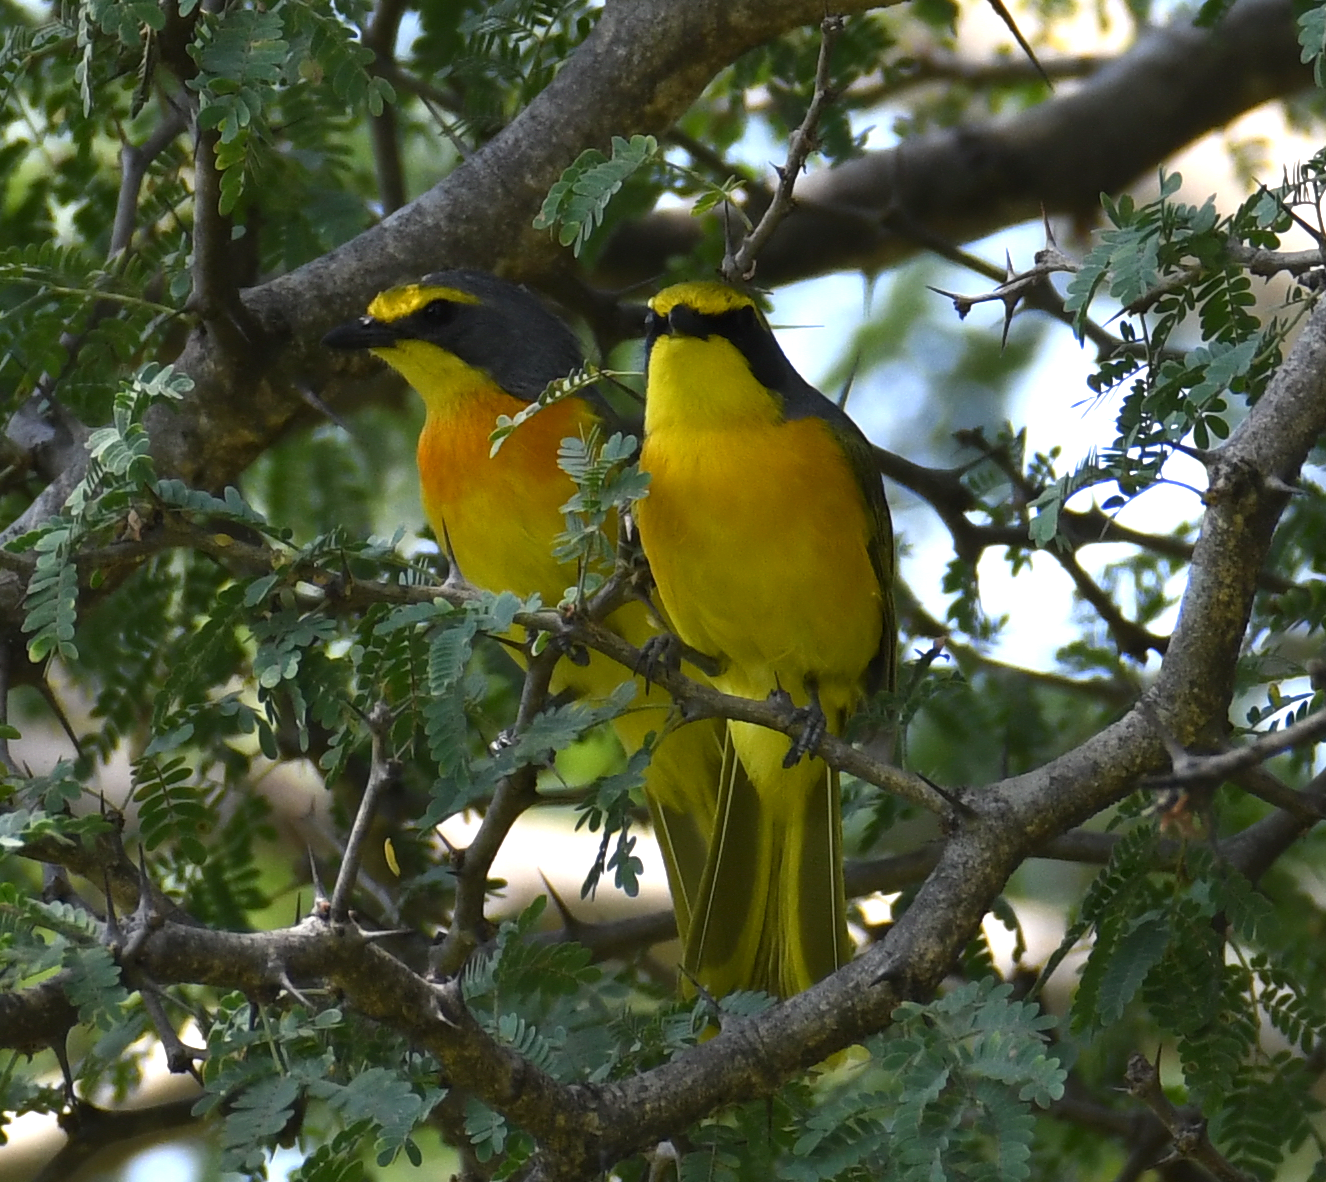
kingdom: Animalia
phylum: Chordata
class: Aves
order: Passeriformes
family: Malaconotidae
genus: Chlorophoneus
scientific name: Chlorophoneus sulfureopectus
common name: Orange-breasted bushshrike
